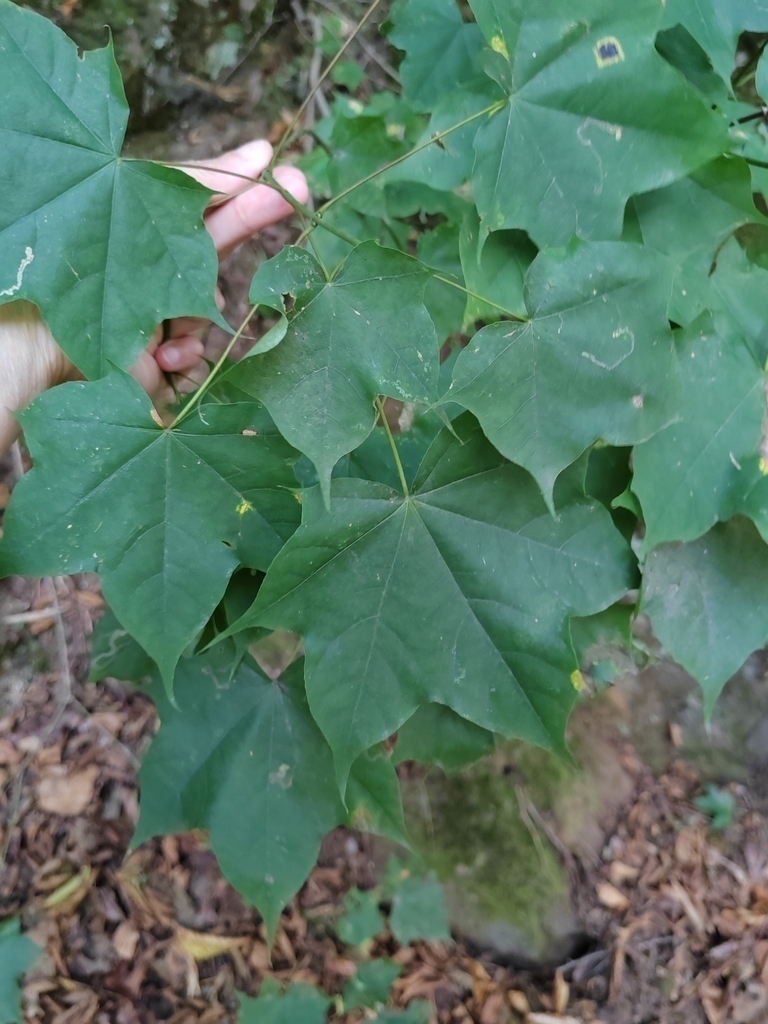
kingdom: Plantae
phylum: Tracheophyta
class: Magnoliopsida
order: Sapindales
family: Sapindaceae
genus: Acer
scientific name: Acer cappadocicum
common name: Cappadocian maple
